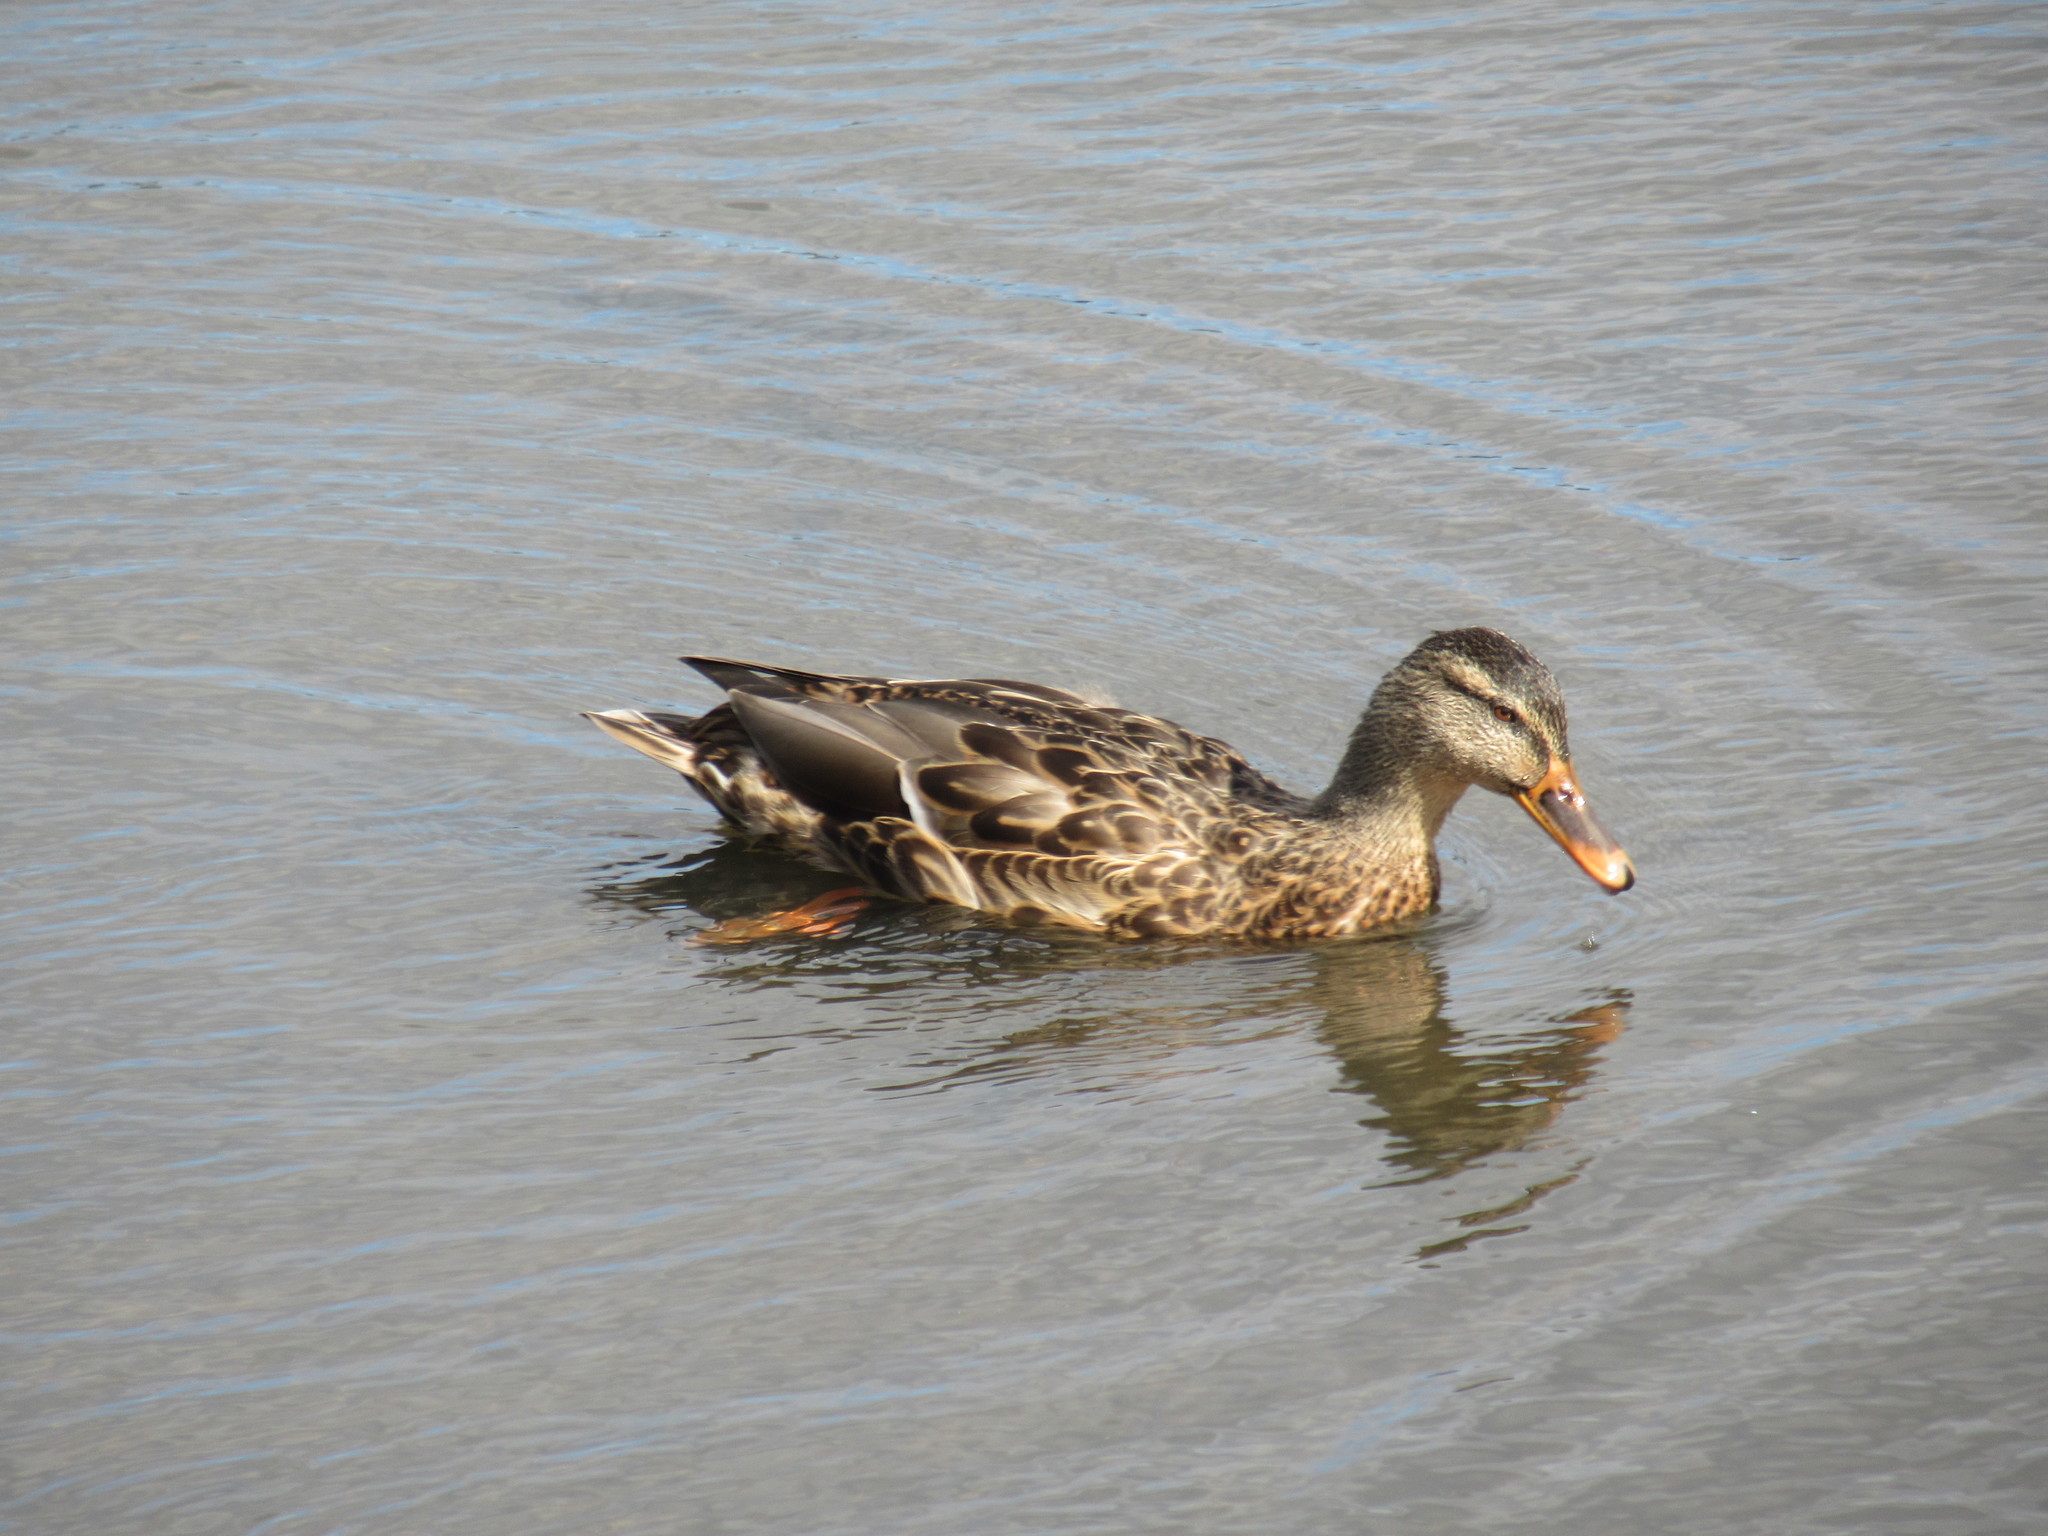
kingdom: Animalia
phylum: Chordata
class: Aves
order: Anseriformes
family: Anatidae
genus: Anas
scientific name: Anas platyrhynchos
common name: Mallard
